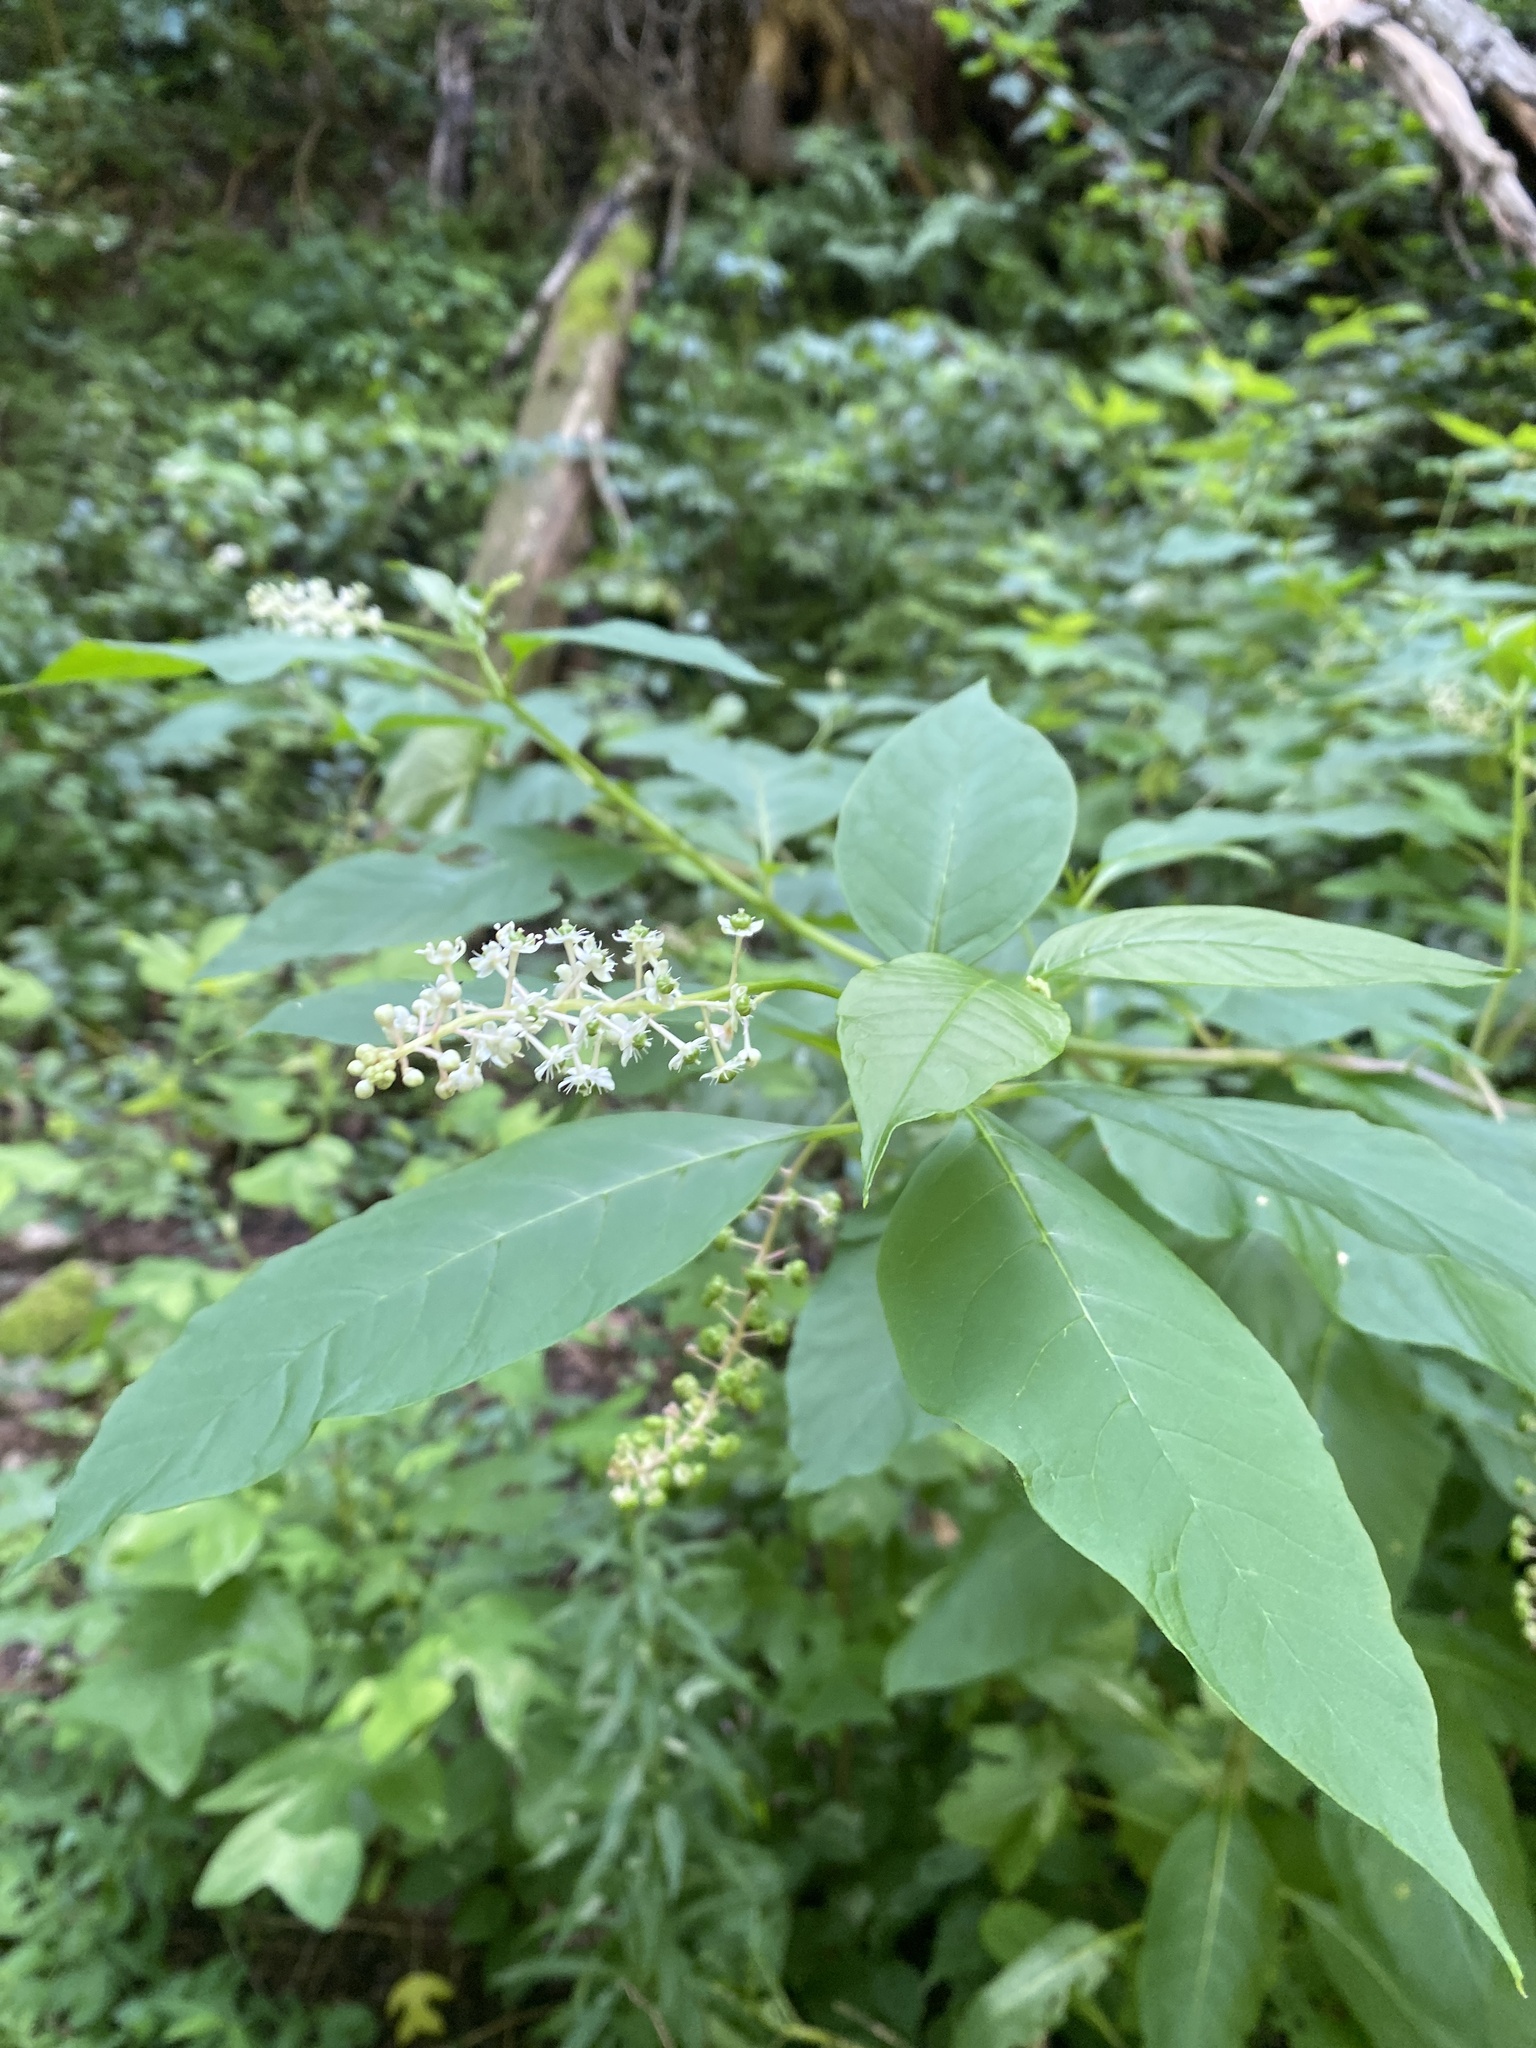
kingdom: Plantae
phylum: Tracheophyta
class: Magnoliopsida
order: Caryophyllales
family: Phytolaccaceae
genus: Phytolacca
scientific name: Phytolacca americana
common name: American pokeweed
